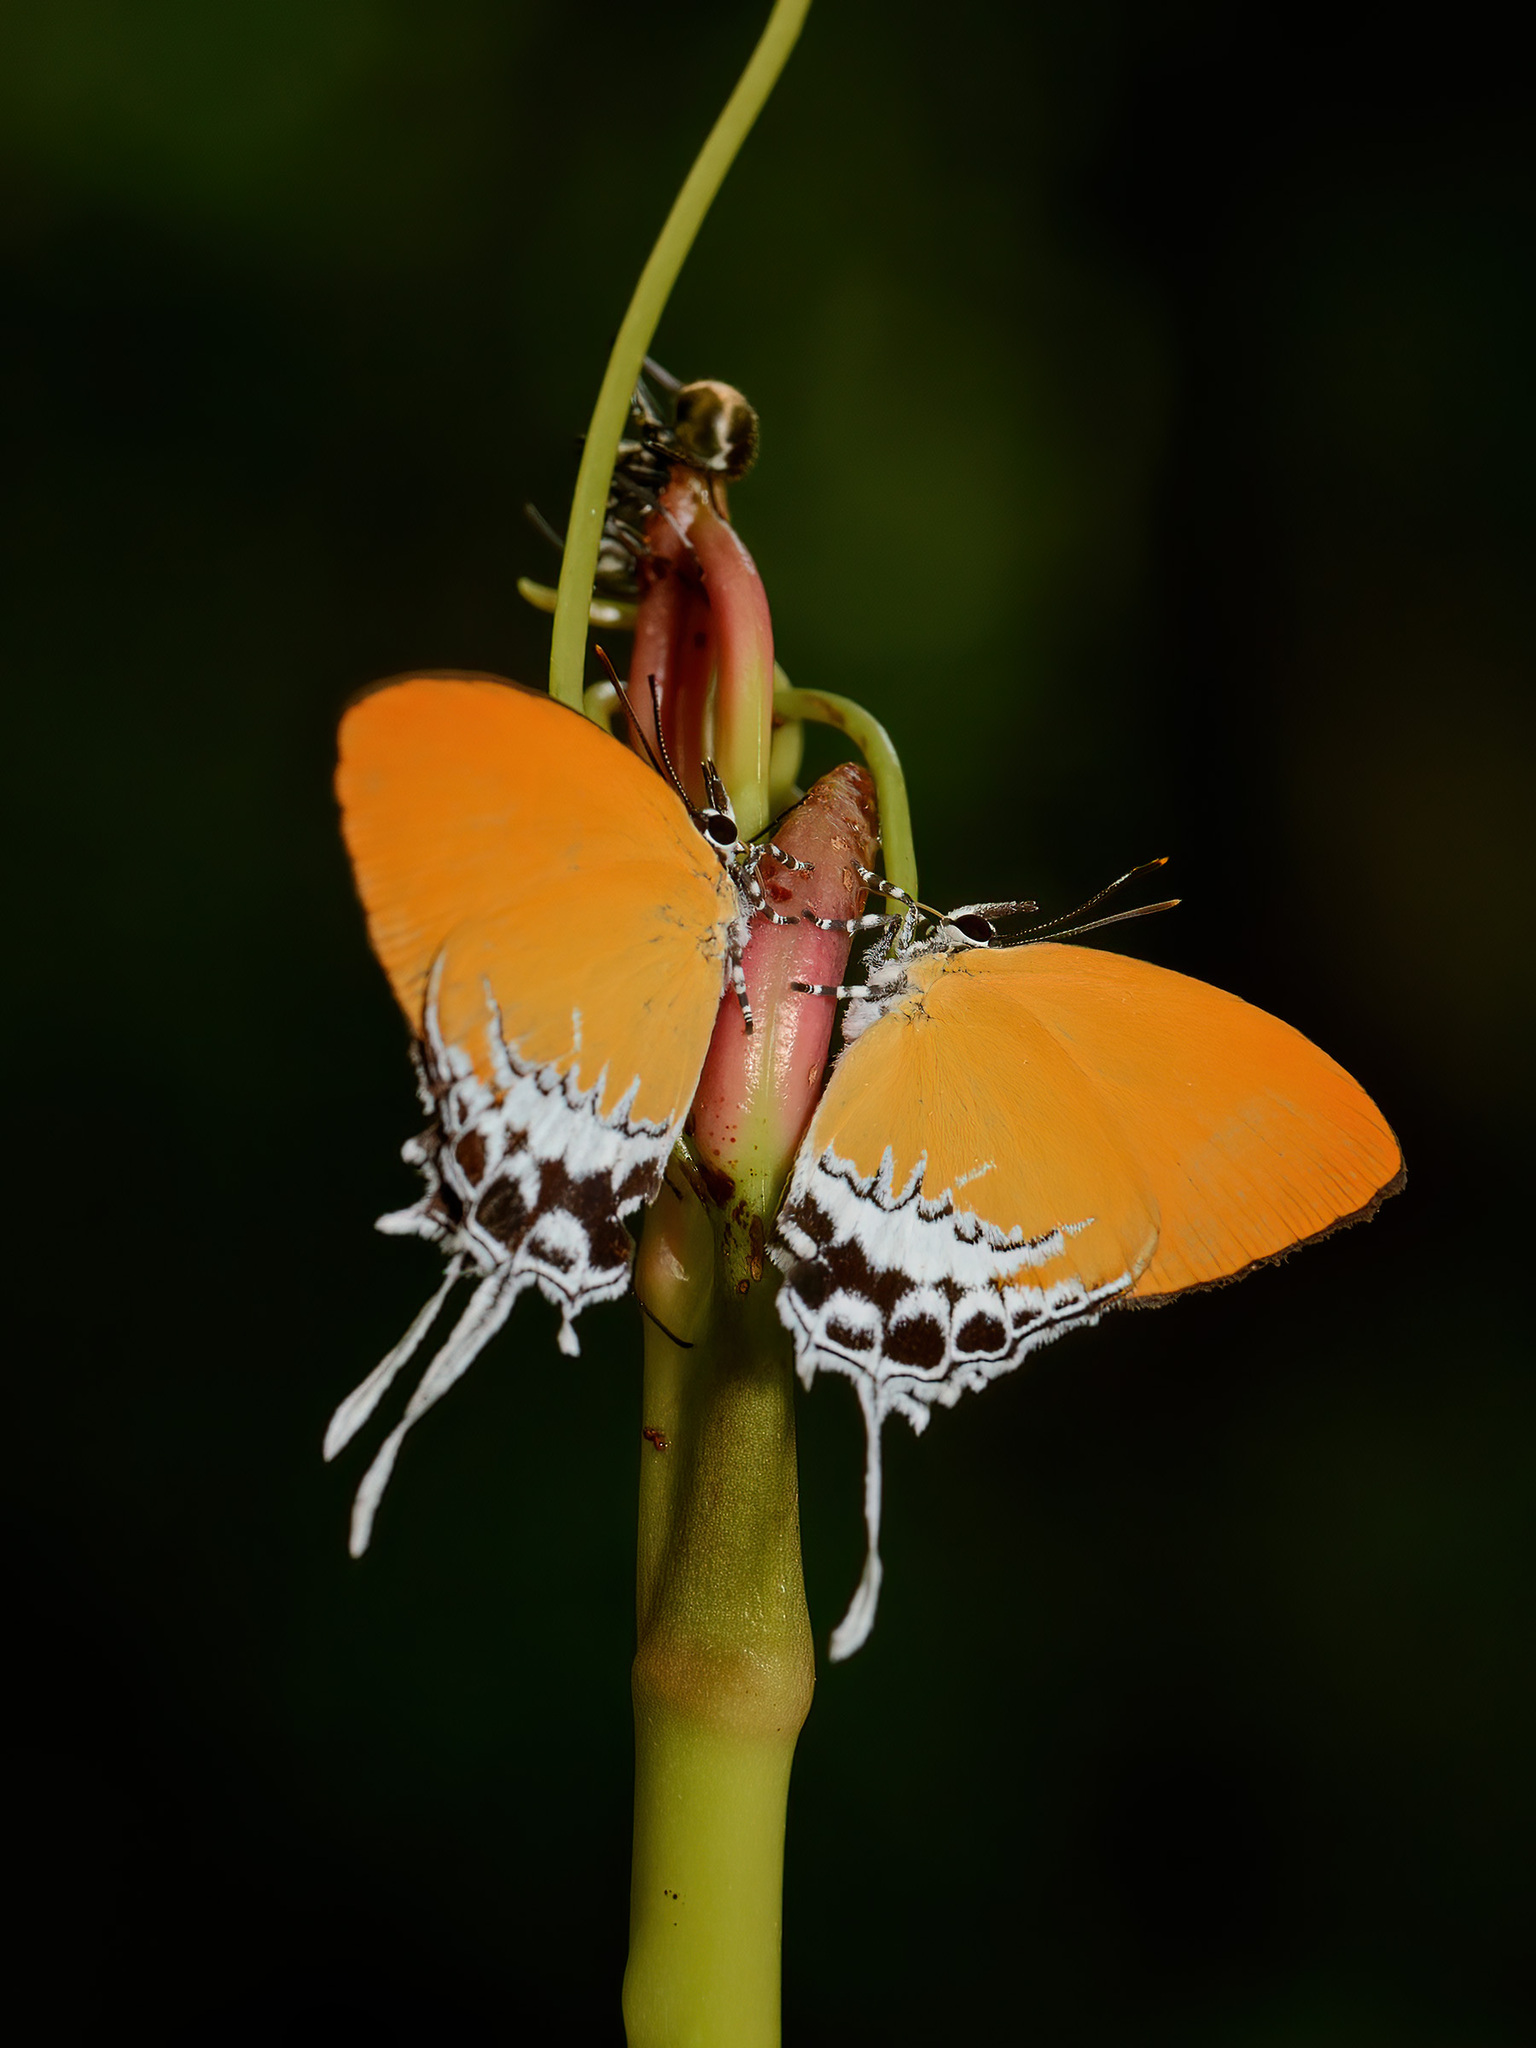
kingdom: Animalia
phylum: Arthropoda
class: Insecta
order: Lepidoptera
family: Lycaenidae
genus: Eooxylides
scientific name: Eooxylides tharis
